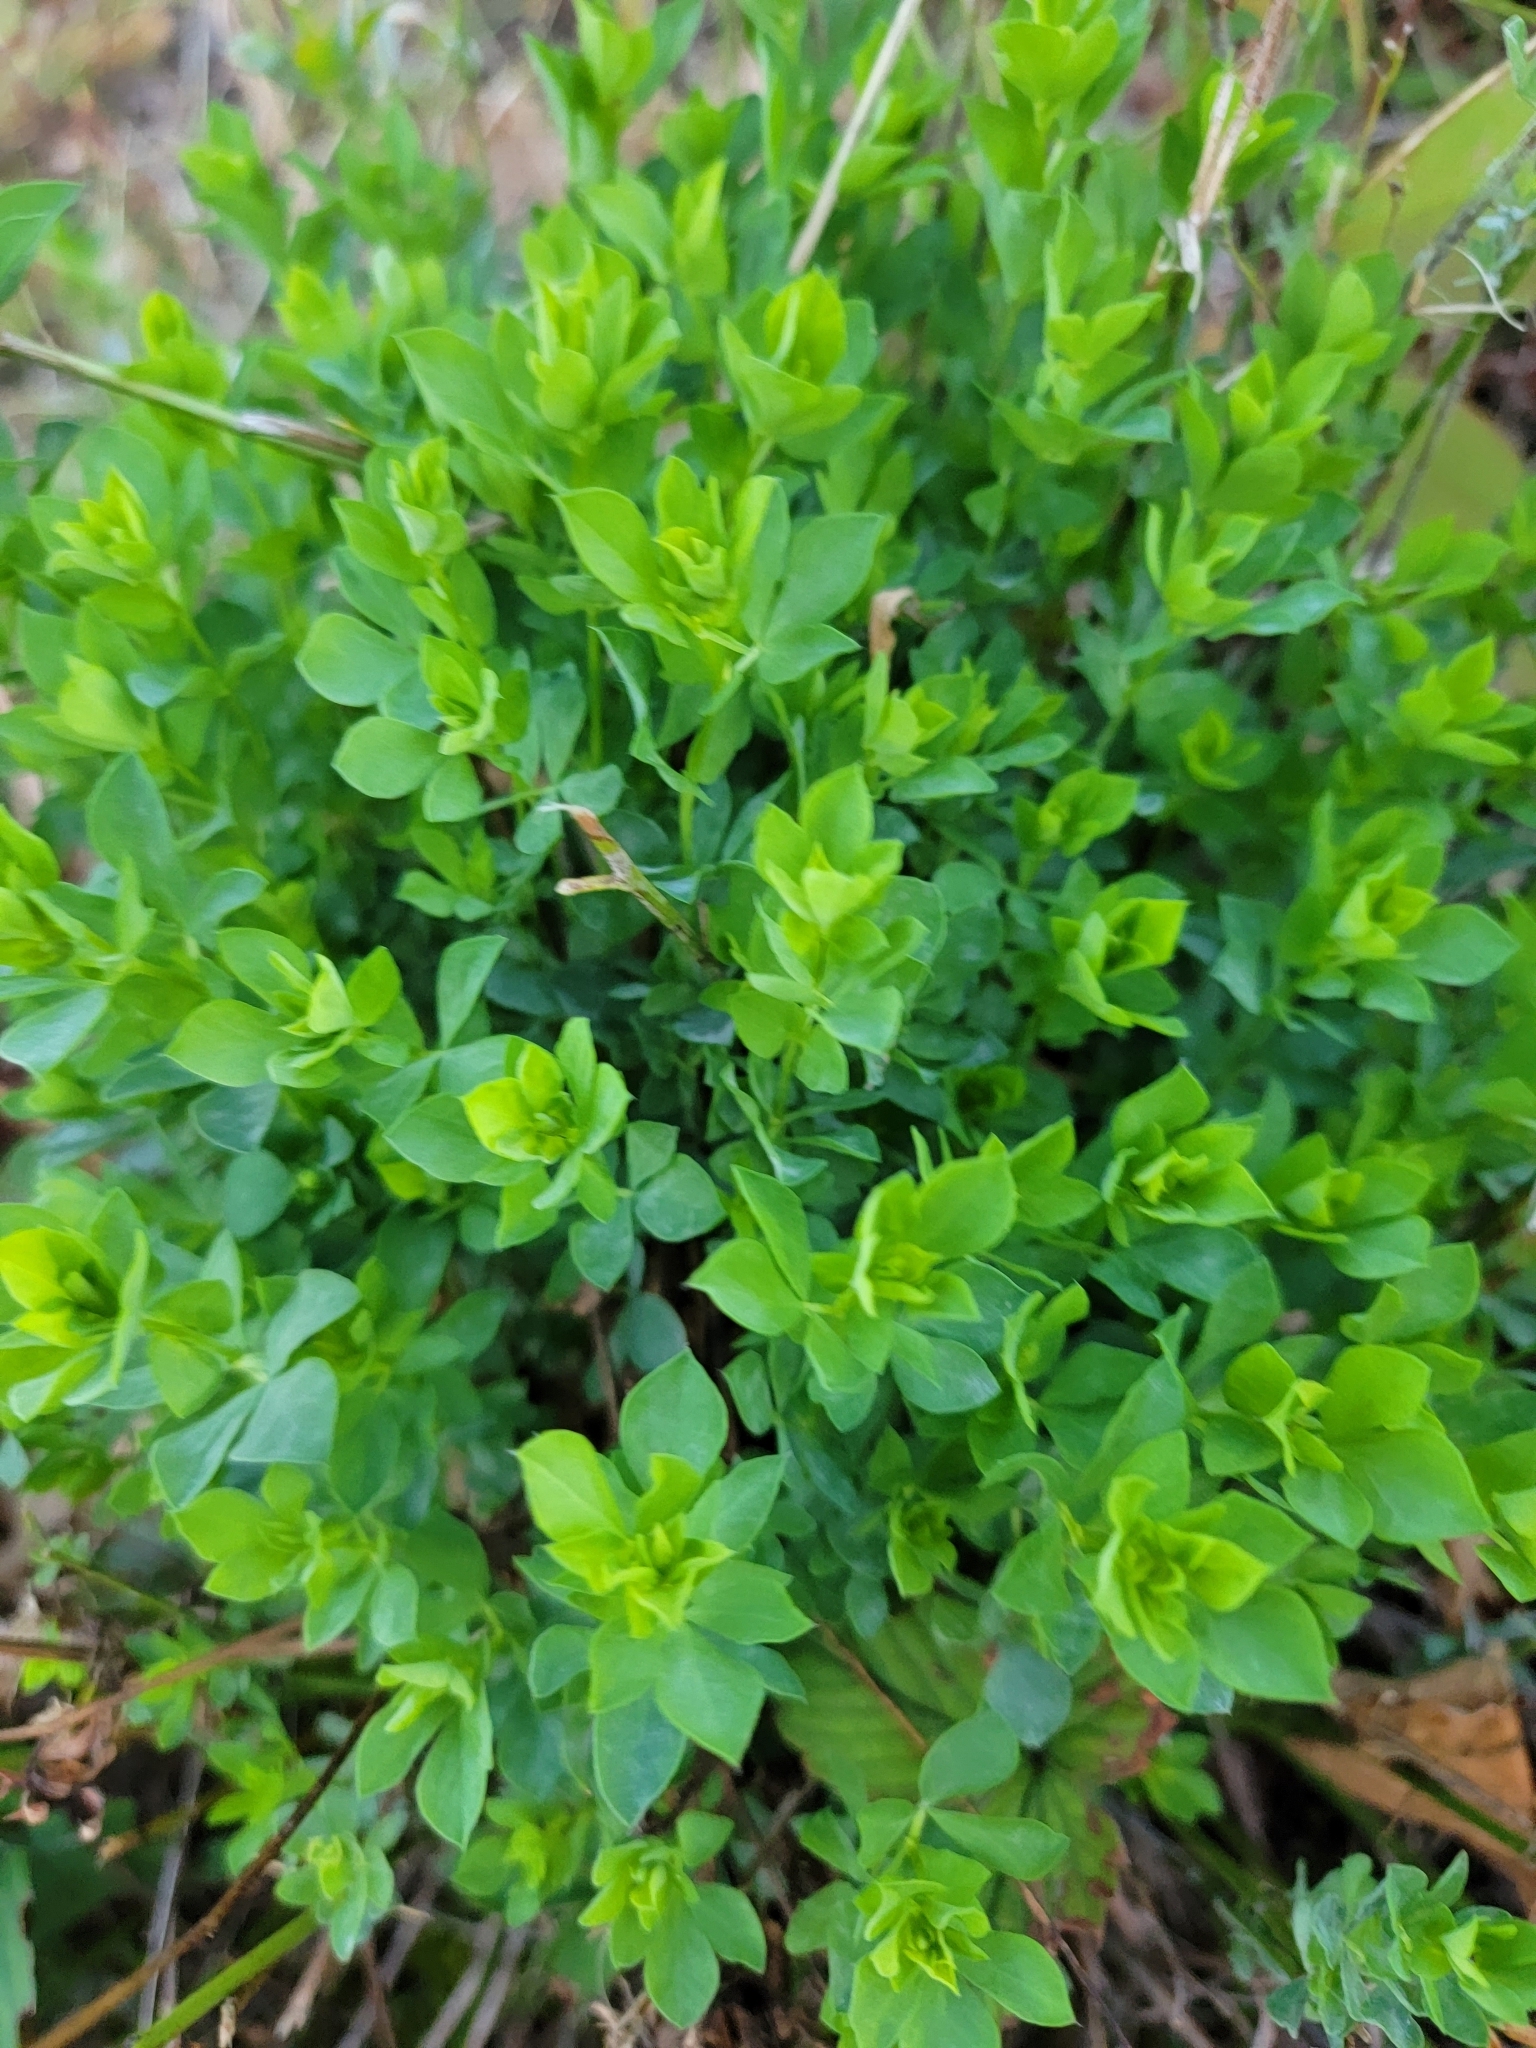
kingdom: Plantae
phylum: Tracheophyta
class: Magnoliopsida
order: Fabales
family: Fabaceae
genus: Lotus
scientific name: Lotus corniculatus
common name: Common bird's-foot-trefoil
